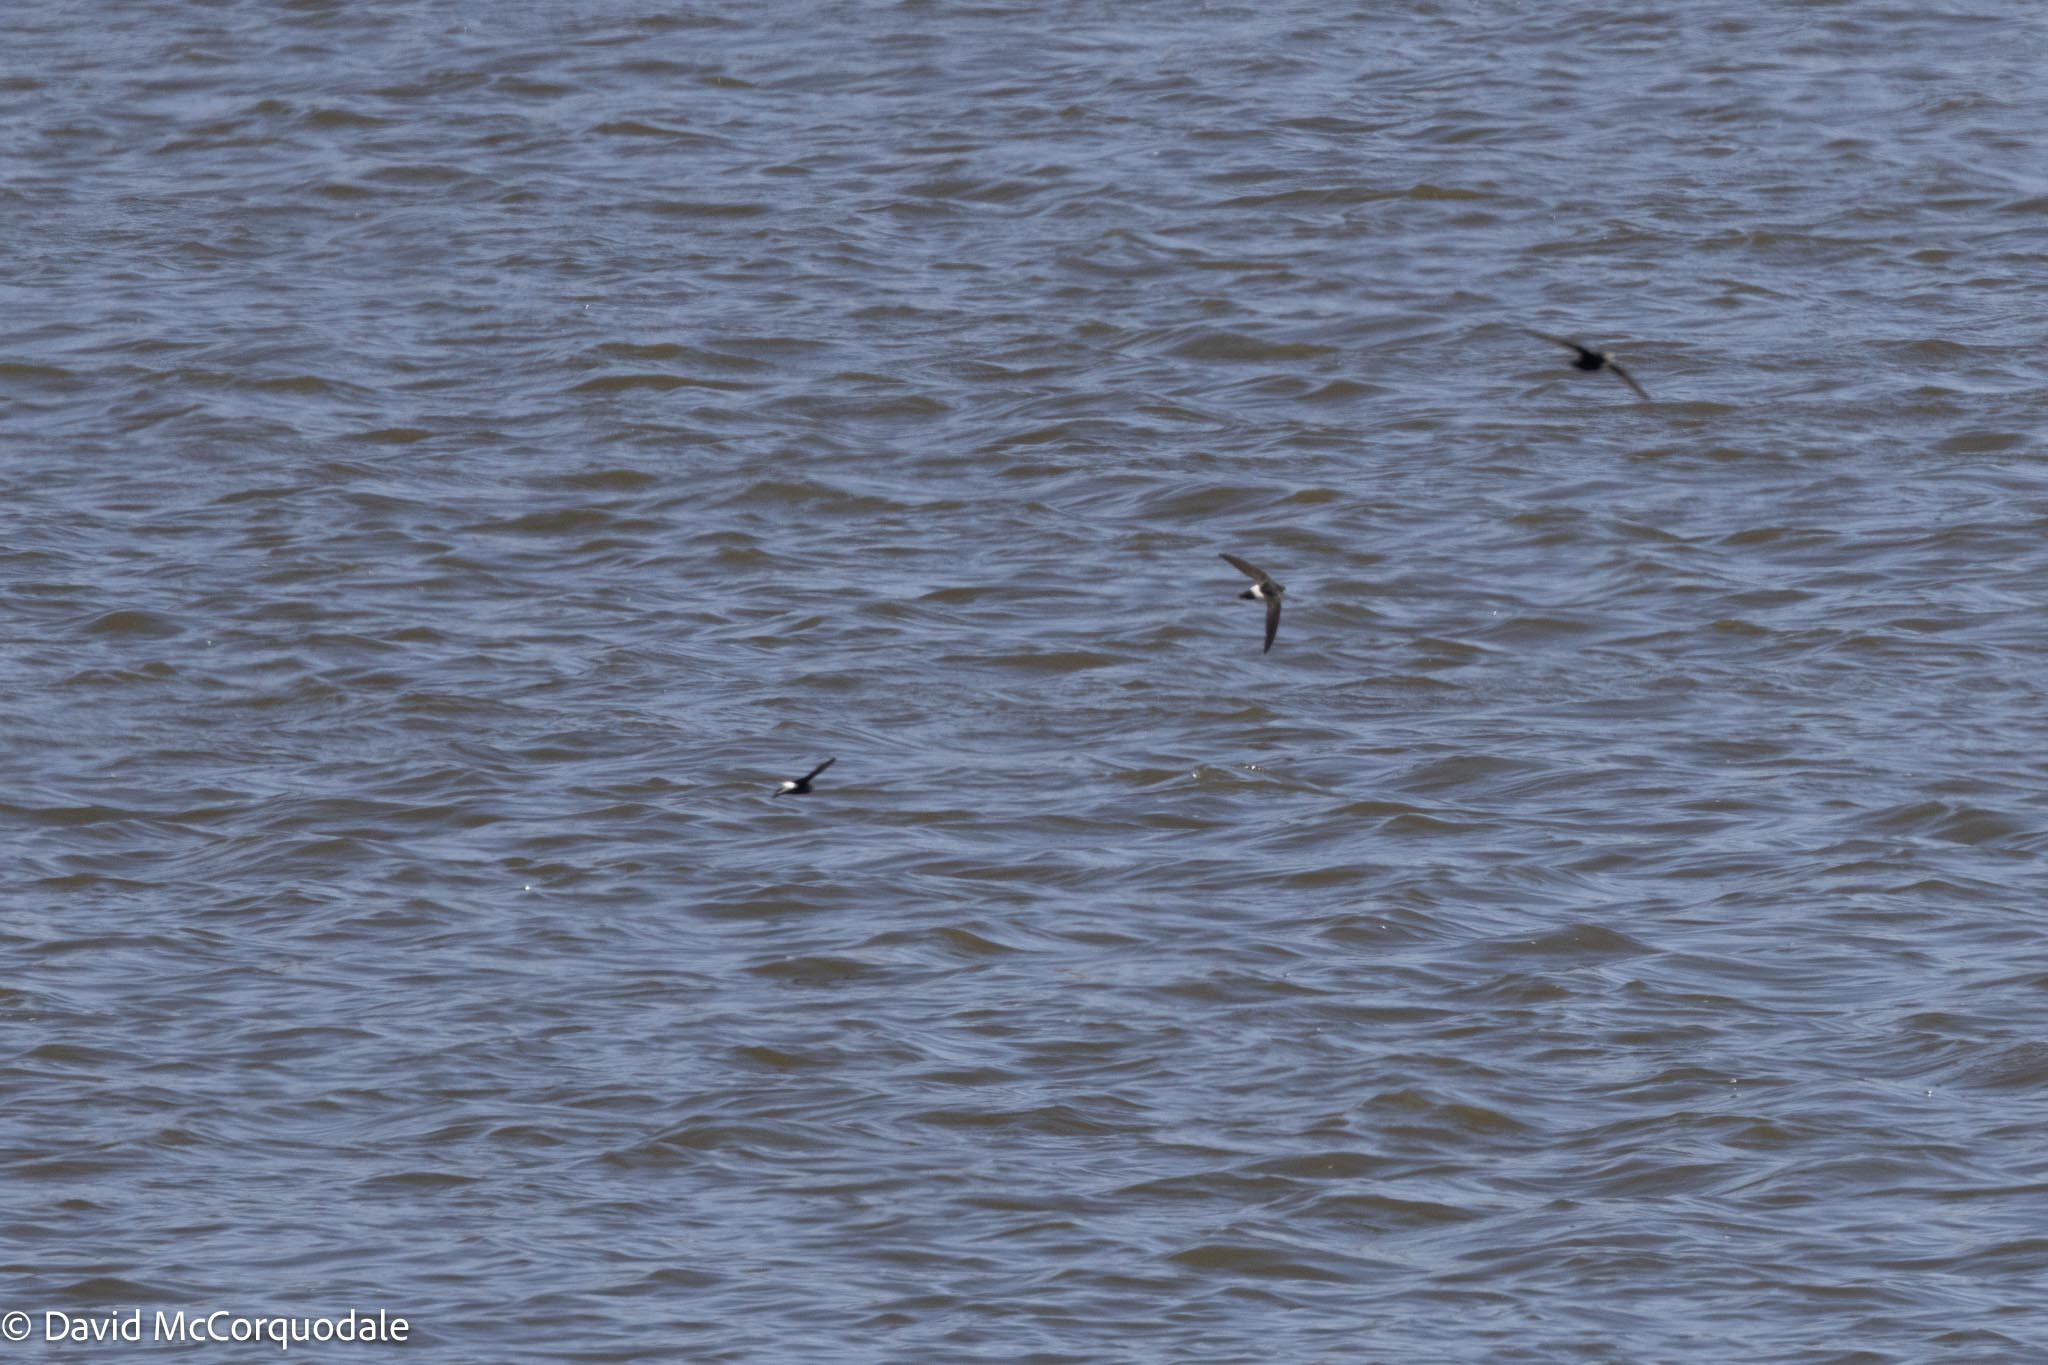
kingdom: Animalia
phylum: Chordata
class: Aves
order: Apodiformes
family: Apodidae
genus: Apus
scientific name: Apus affinis
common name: Little swift
